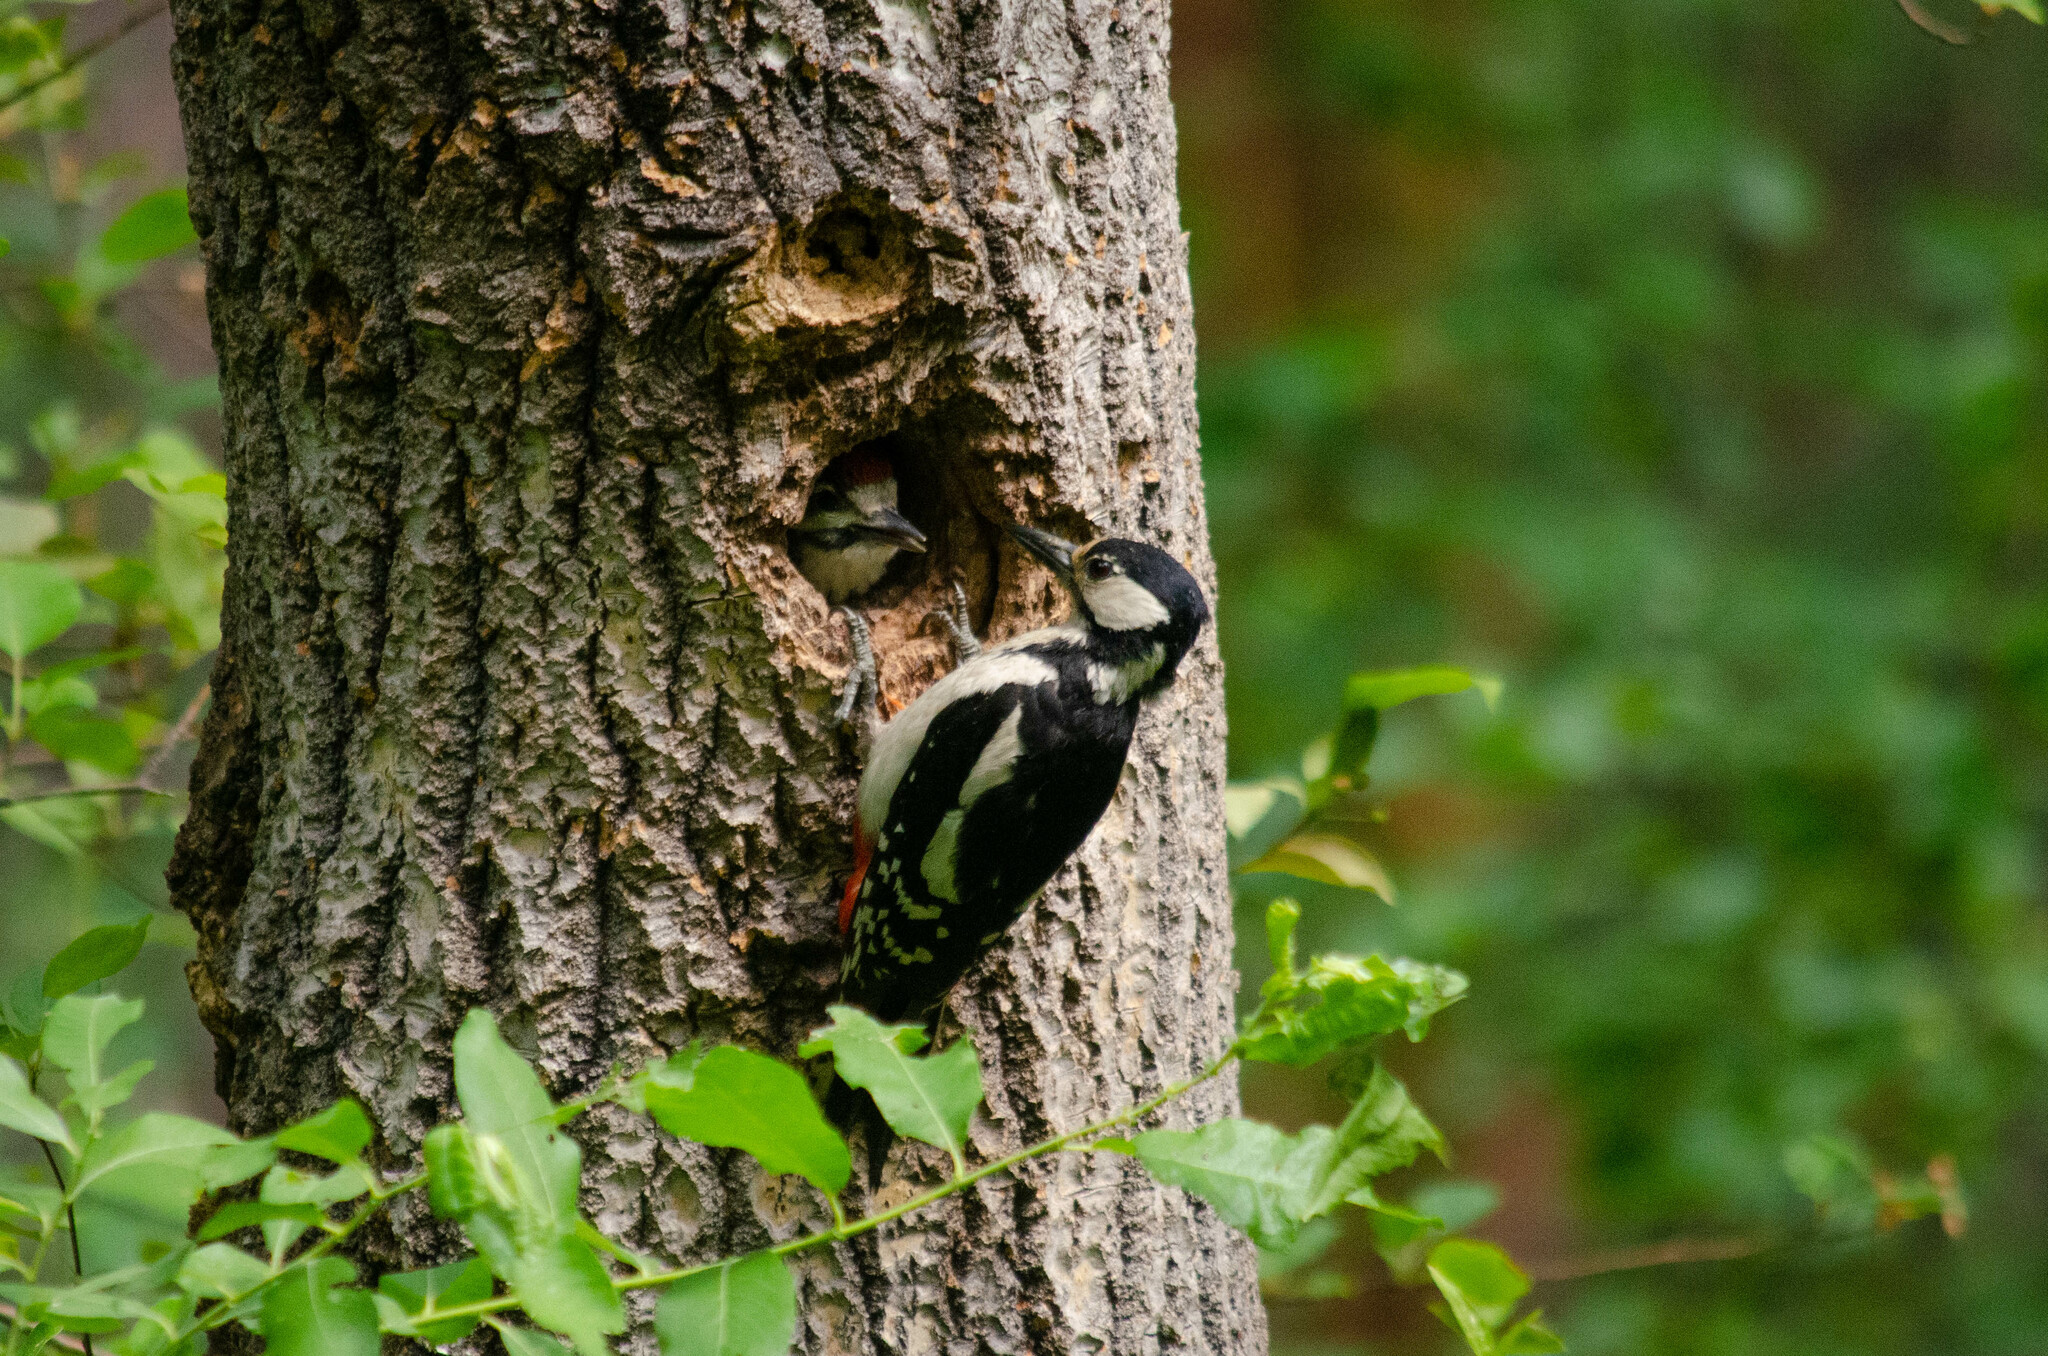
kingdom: Animalia
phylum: Chordata
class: Aves
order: Piciformes
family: Picidae
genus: Dendrocopos
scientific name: Dendrocopos major
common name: Great spotted woodpecker
